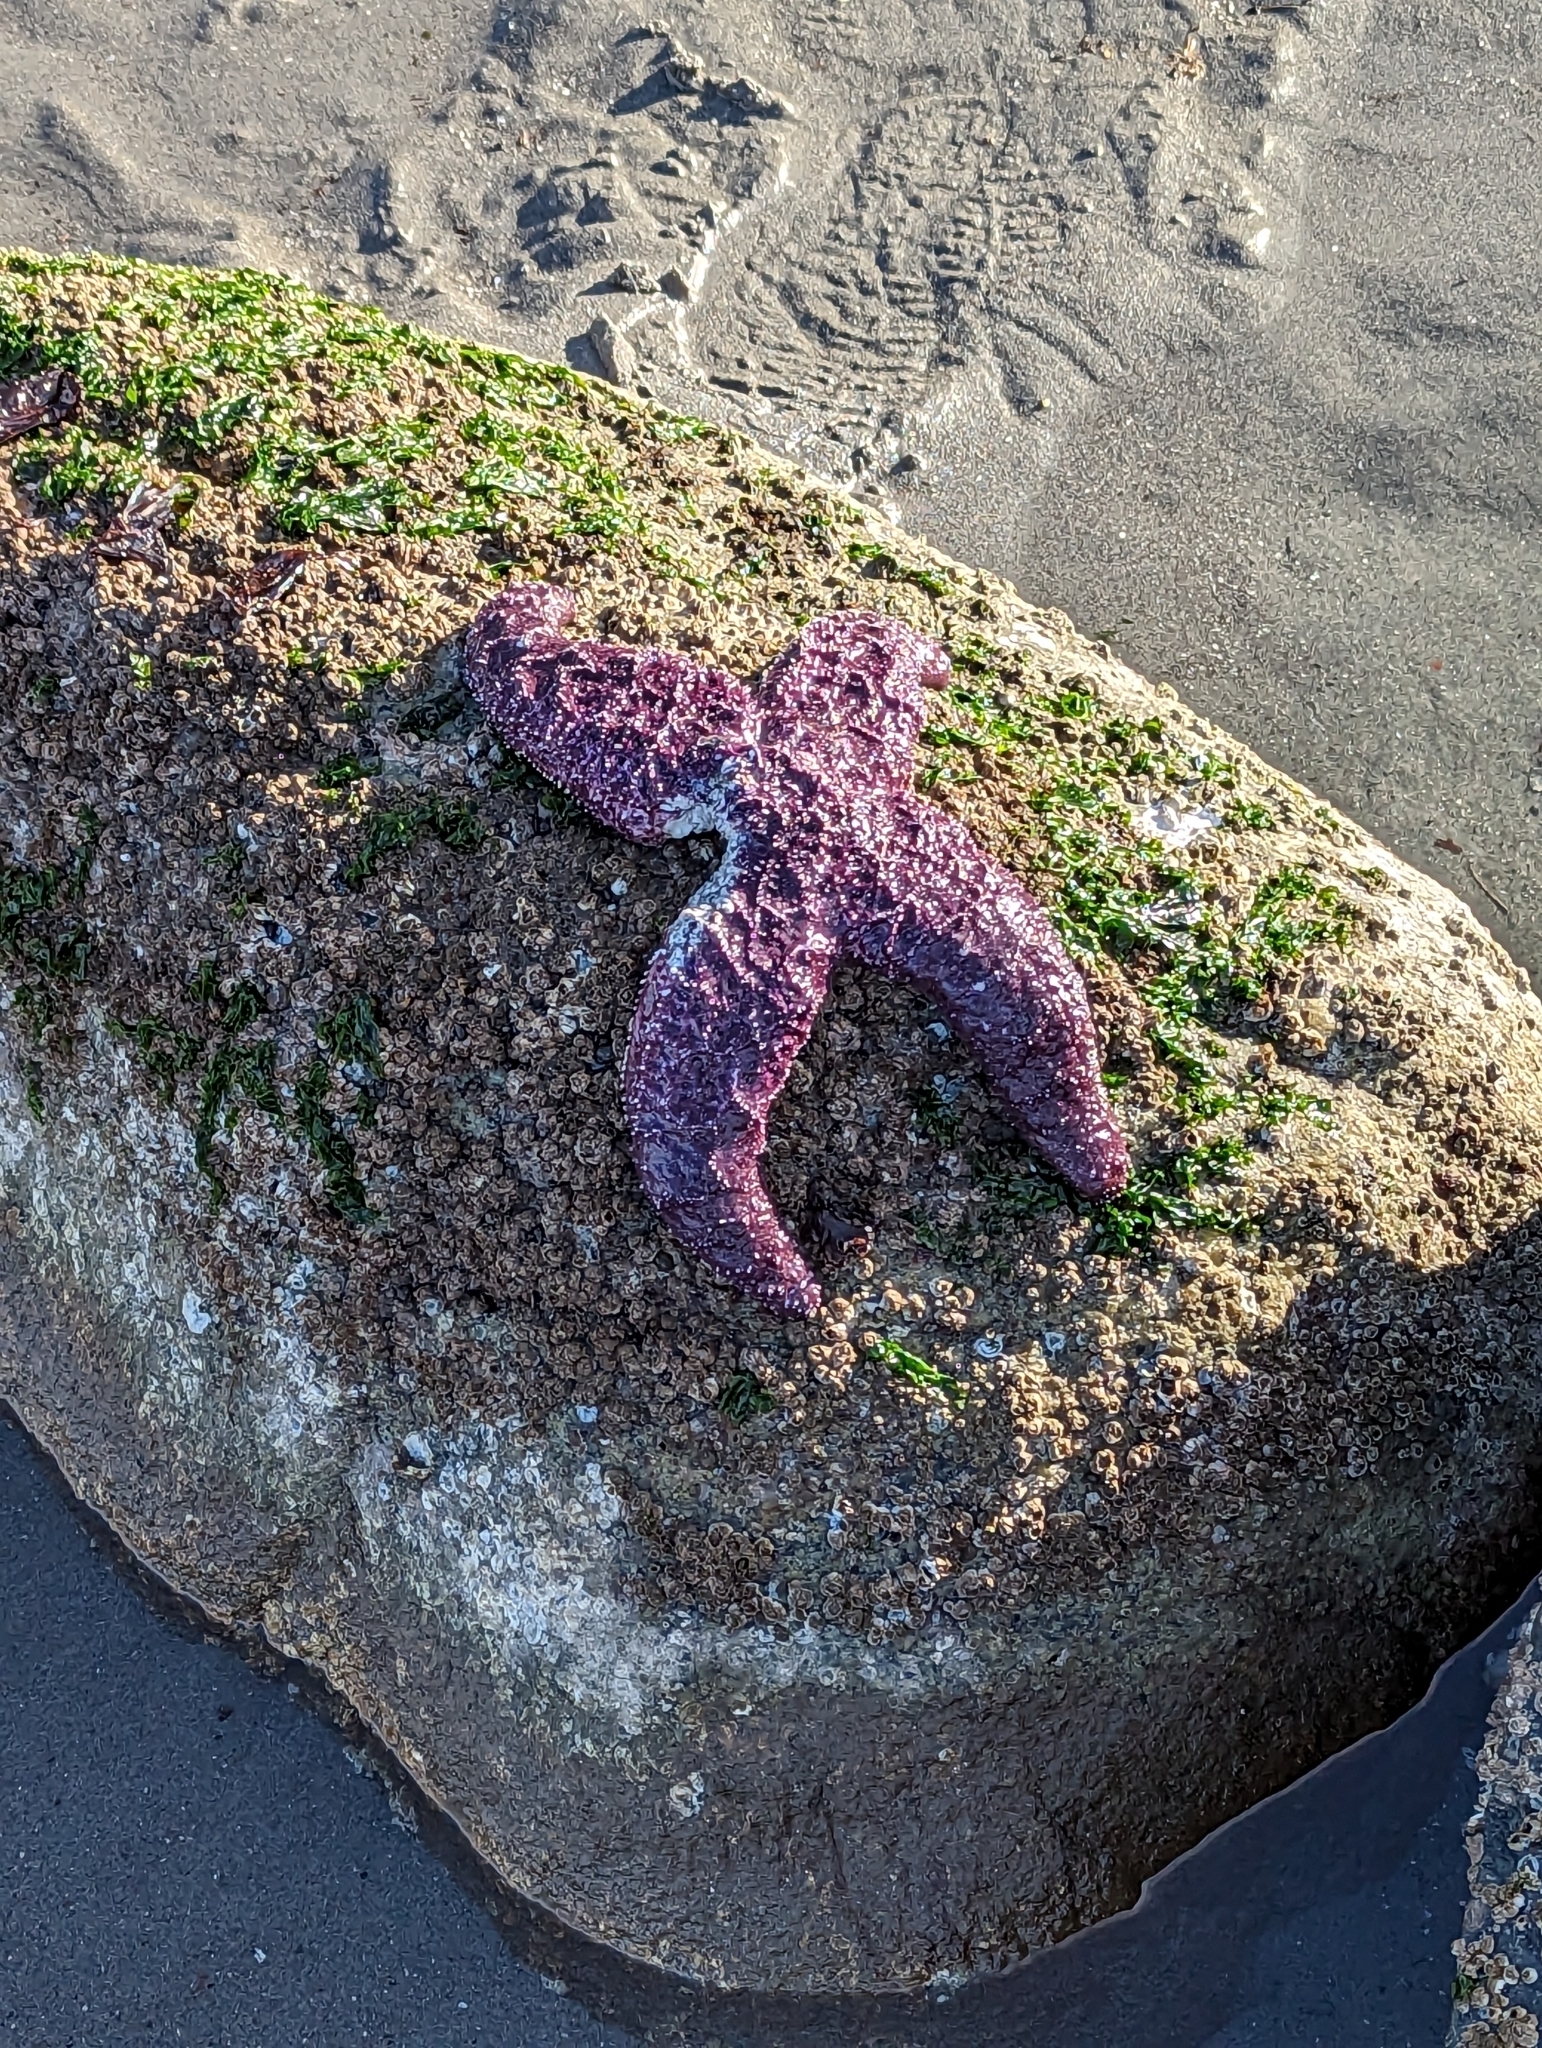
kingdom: Animalia
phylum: Echinodermata
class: Asteroidea
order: Forcipulatida
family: Asteriidae
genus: Pisaster
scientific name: Pisaster ochraceus
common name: Ochre stars
